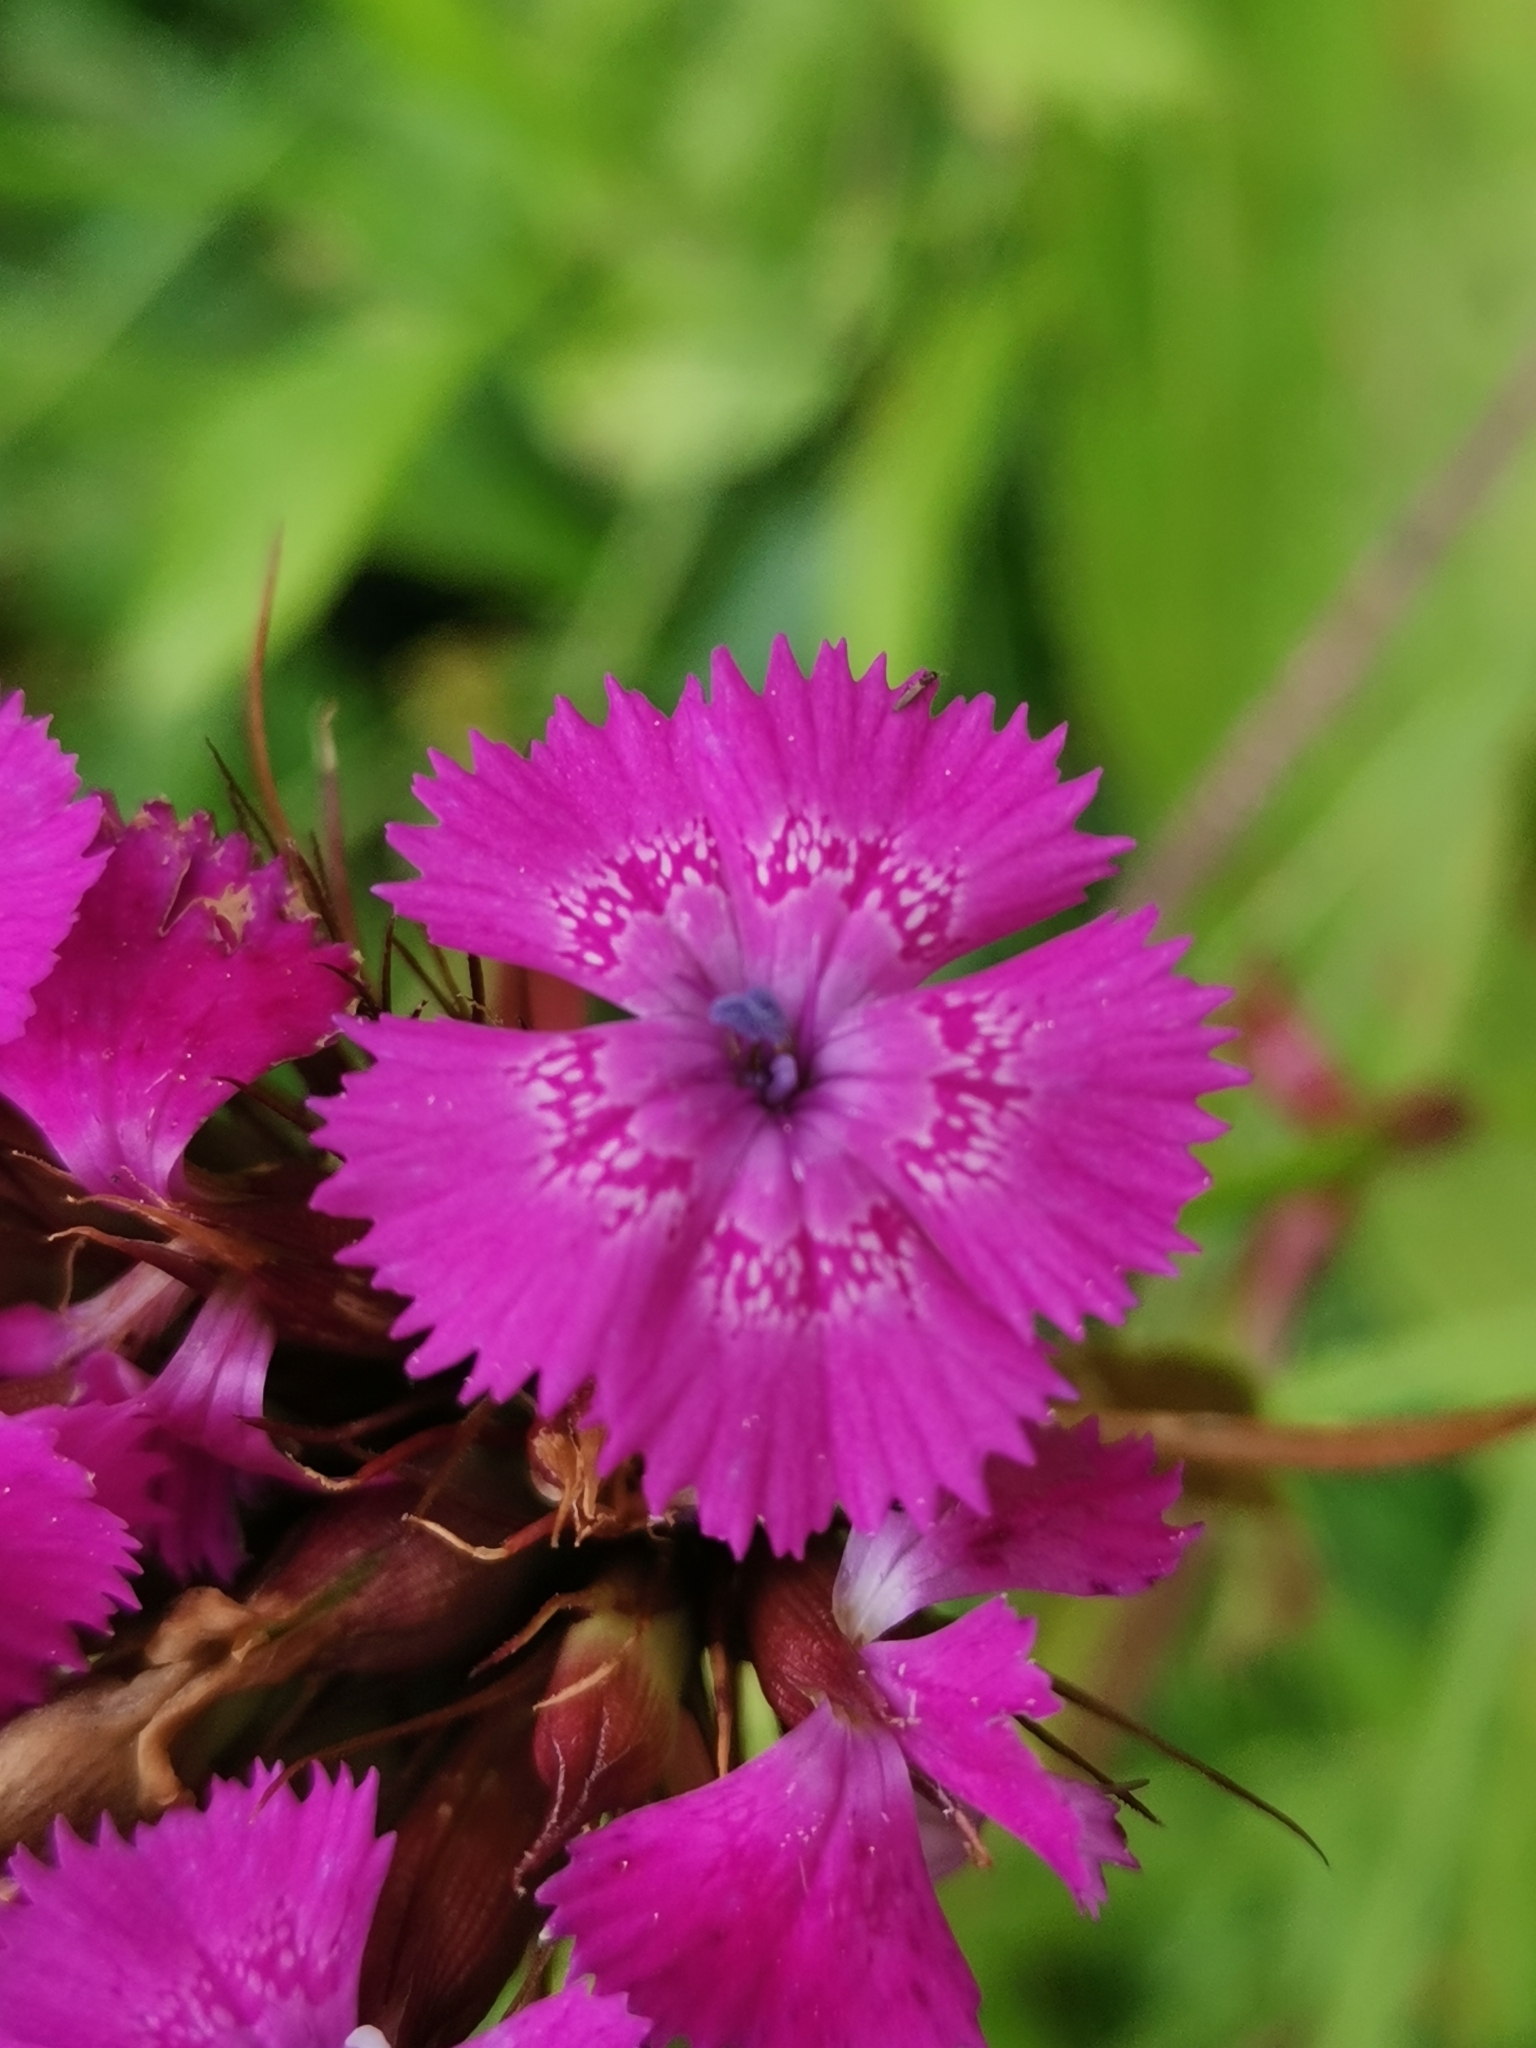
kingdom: Plantae
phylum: Tracheophyta
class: Magnoliopsida
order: Caryophyllales
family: Caryophyllaceae
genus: Dianthus
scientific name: Dianthus barbatus
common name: Sweet-william
